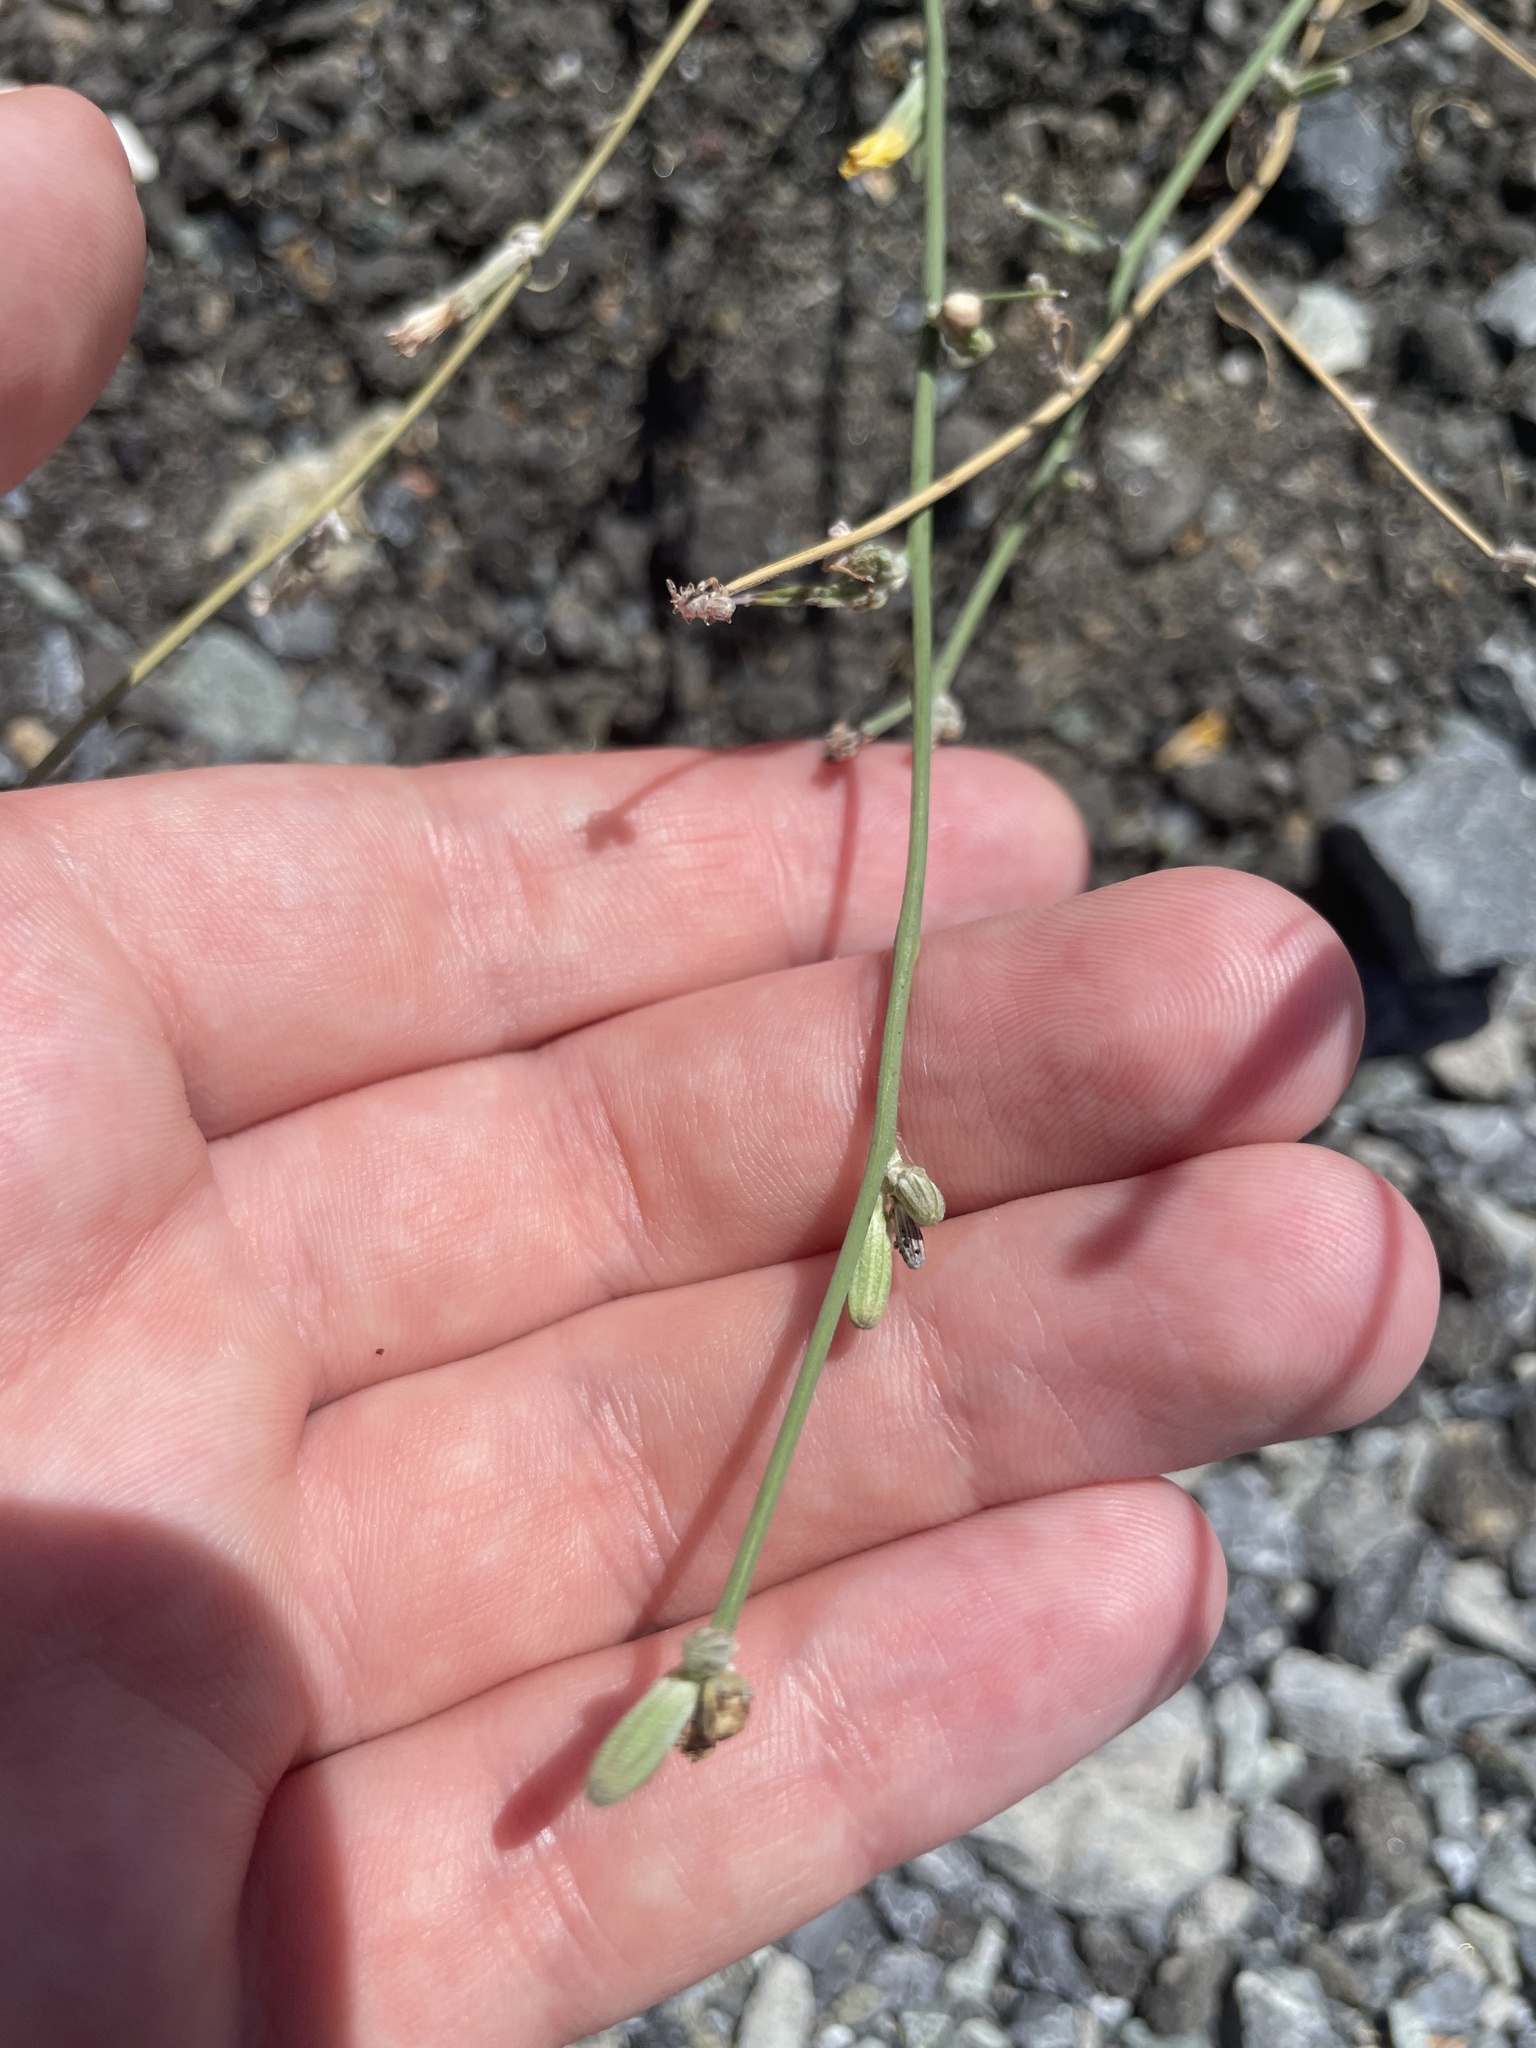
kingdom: Plantae
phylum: Tracheophyta
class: Magnoliopsida
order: Asterales
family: Asteraceae
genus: Chondrilla
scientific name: Chondrilla juncea
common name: Skeleton weed
